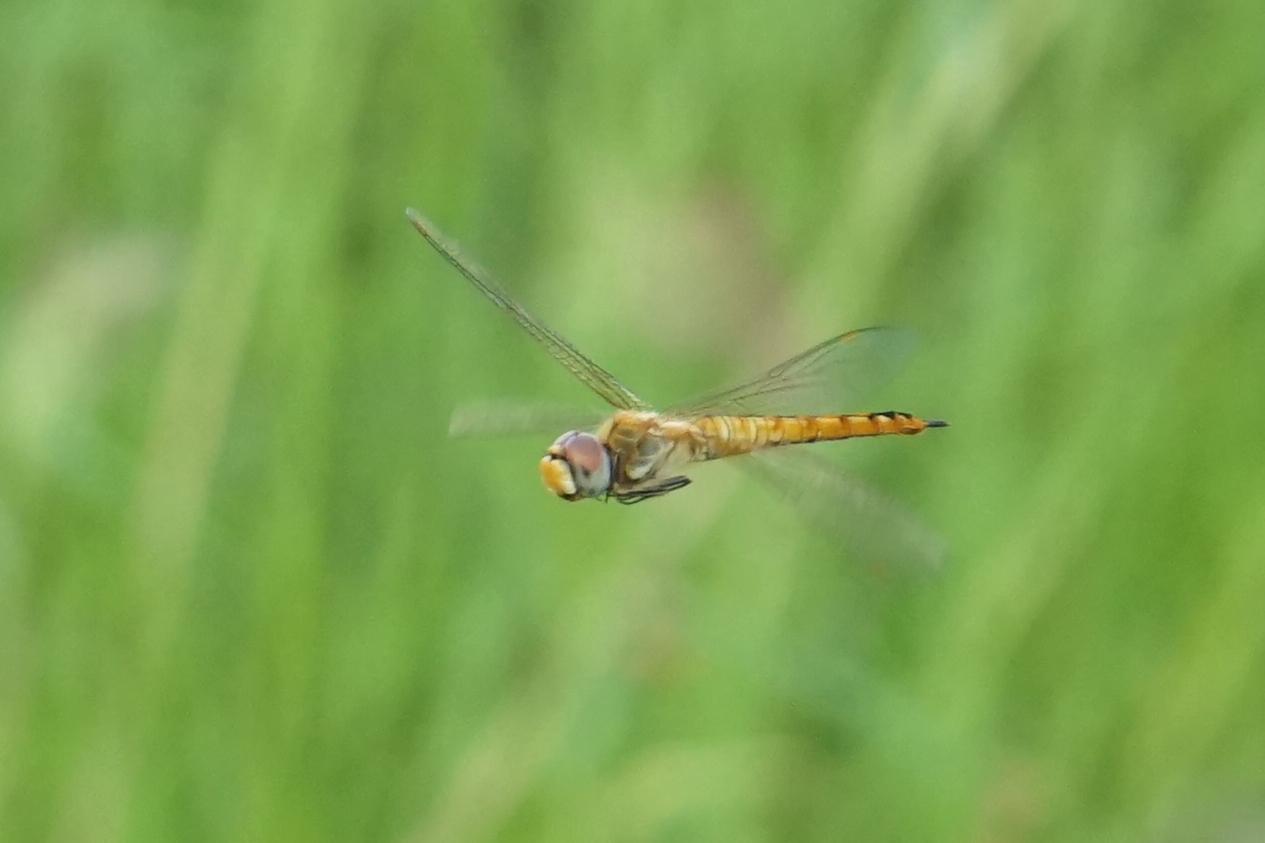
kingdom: Animalia
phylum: Arthropoda
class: Insecta
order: Odonata
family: Libellulidae
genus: Pantala
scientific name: Pantala flavescens
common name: Wandering glider
